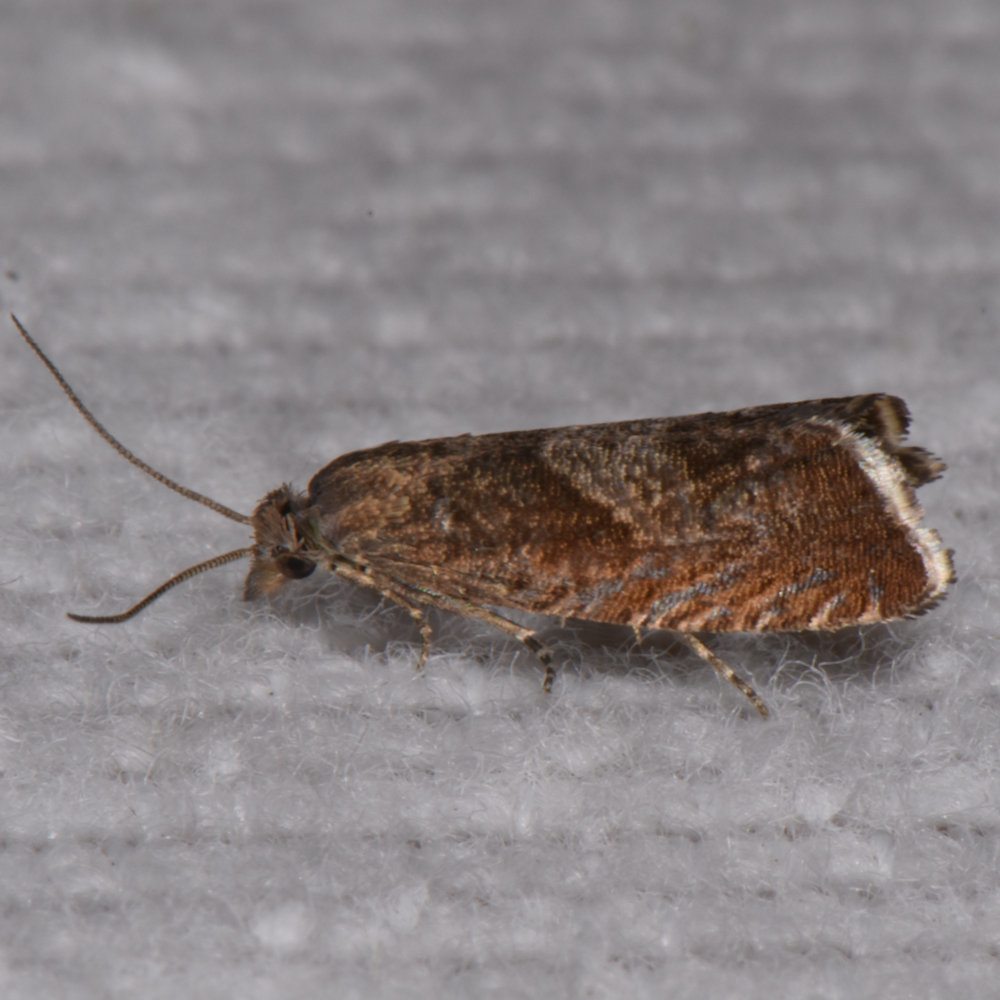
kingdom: Animalia
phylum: Arthropoda
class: Insecta
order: Lepidoptera
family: Tortricidae
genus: Dichrorampha
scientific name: Dichrorampha acuminatana
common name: Sharp-winged drill
